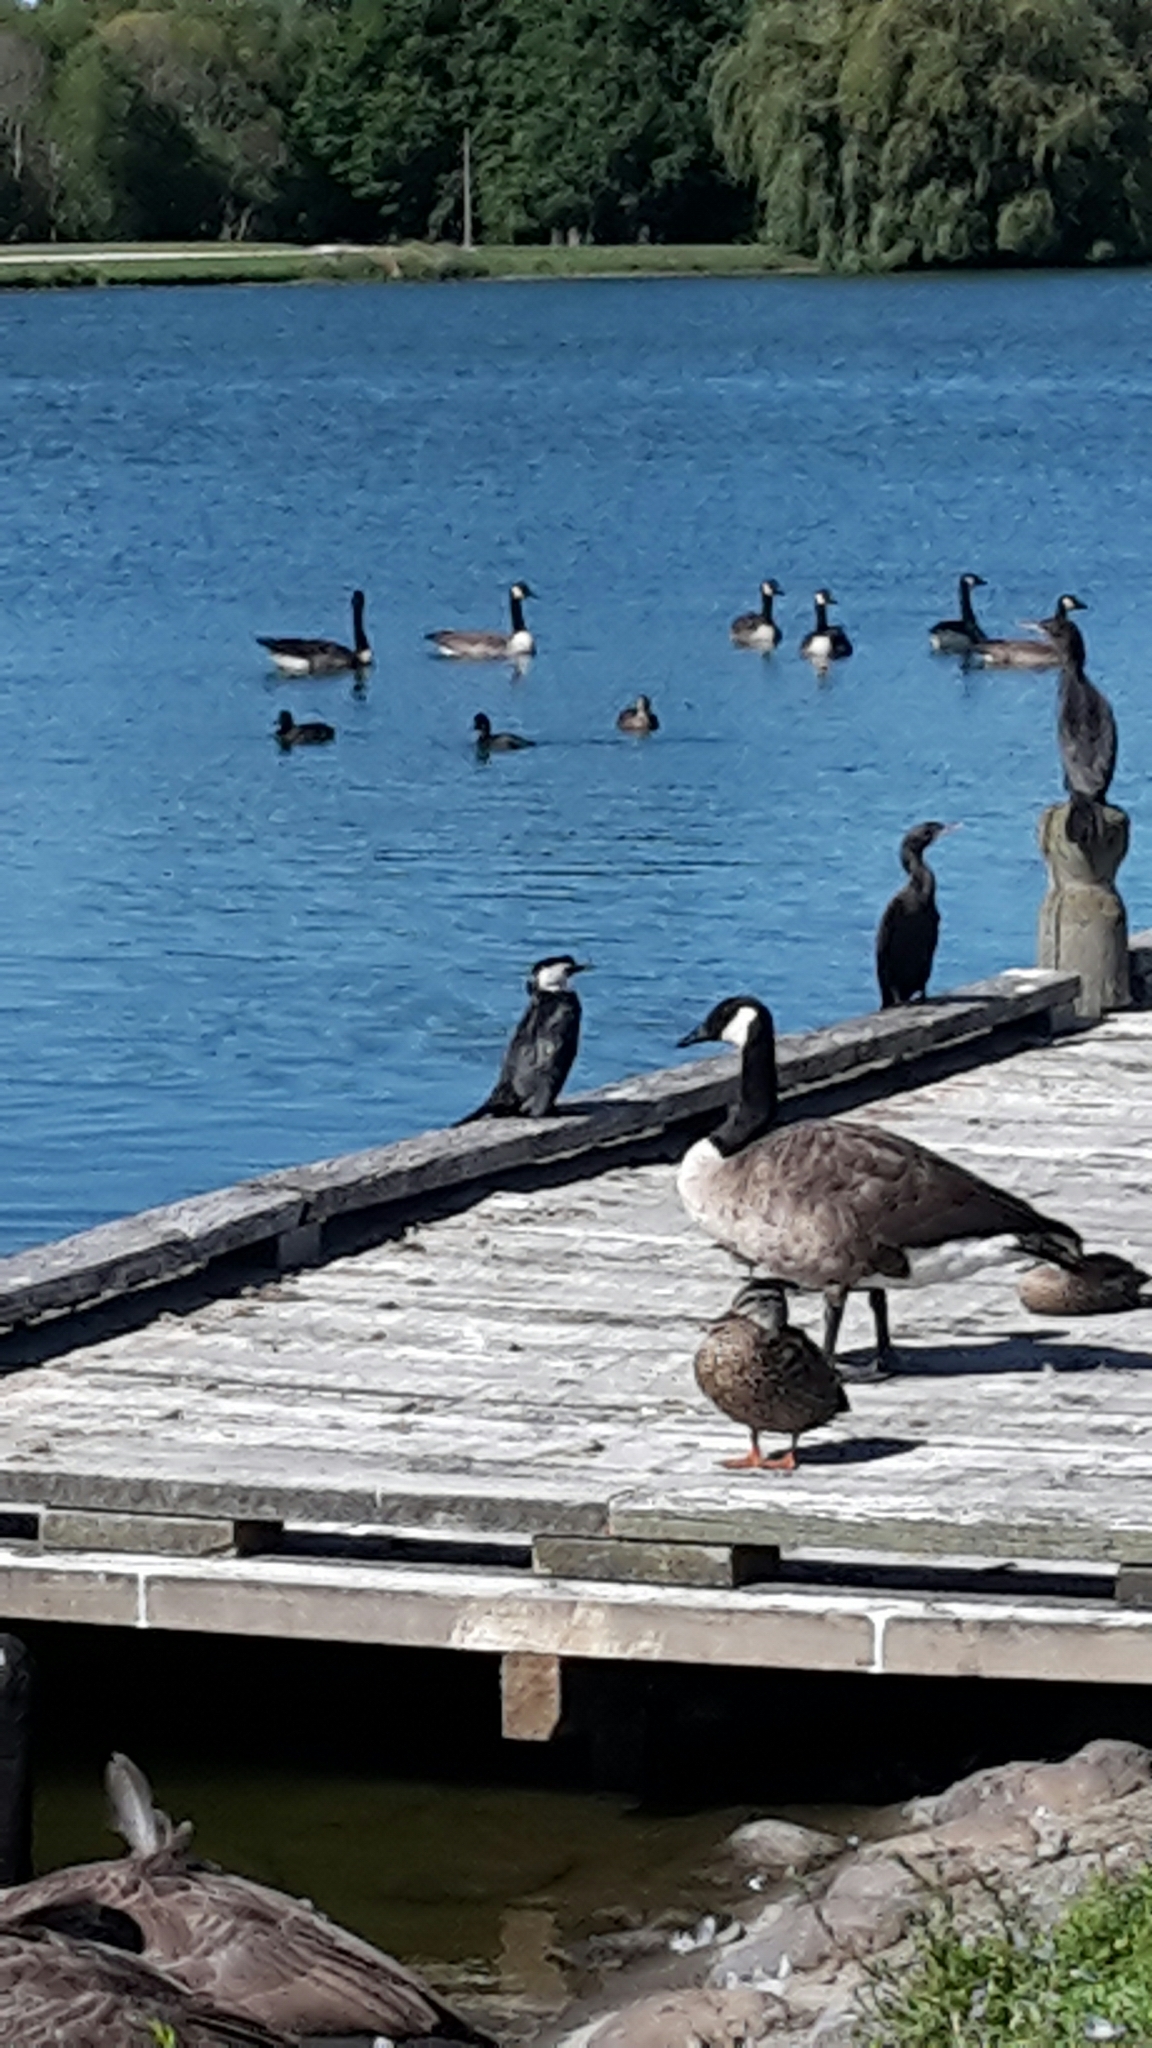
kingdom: Animalia
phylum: Chordata
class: Aves
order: Suliformes
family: Phalacrocoracidae
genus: Microcarbo
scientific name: Microcarbo melanoleucos
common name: Little pied cormorant
